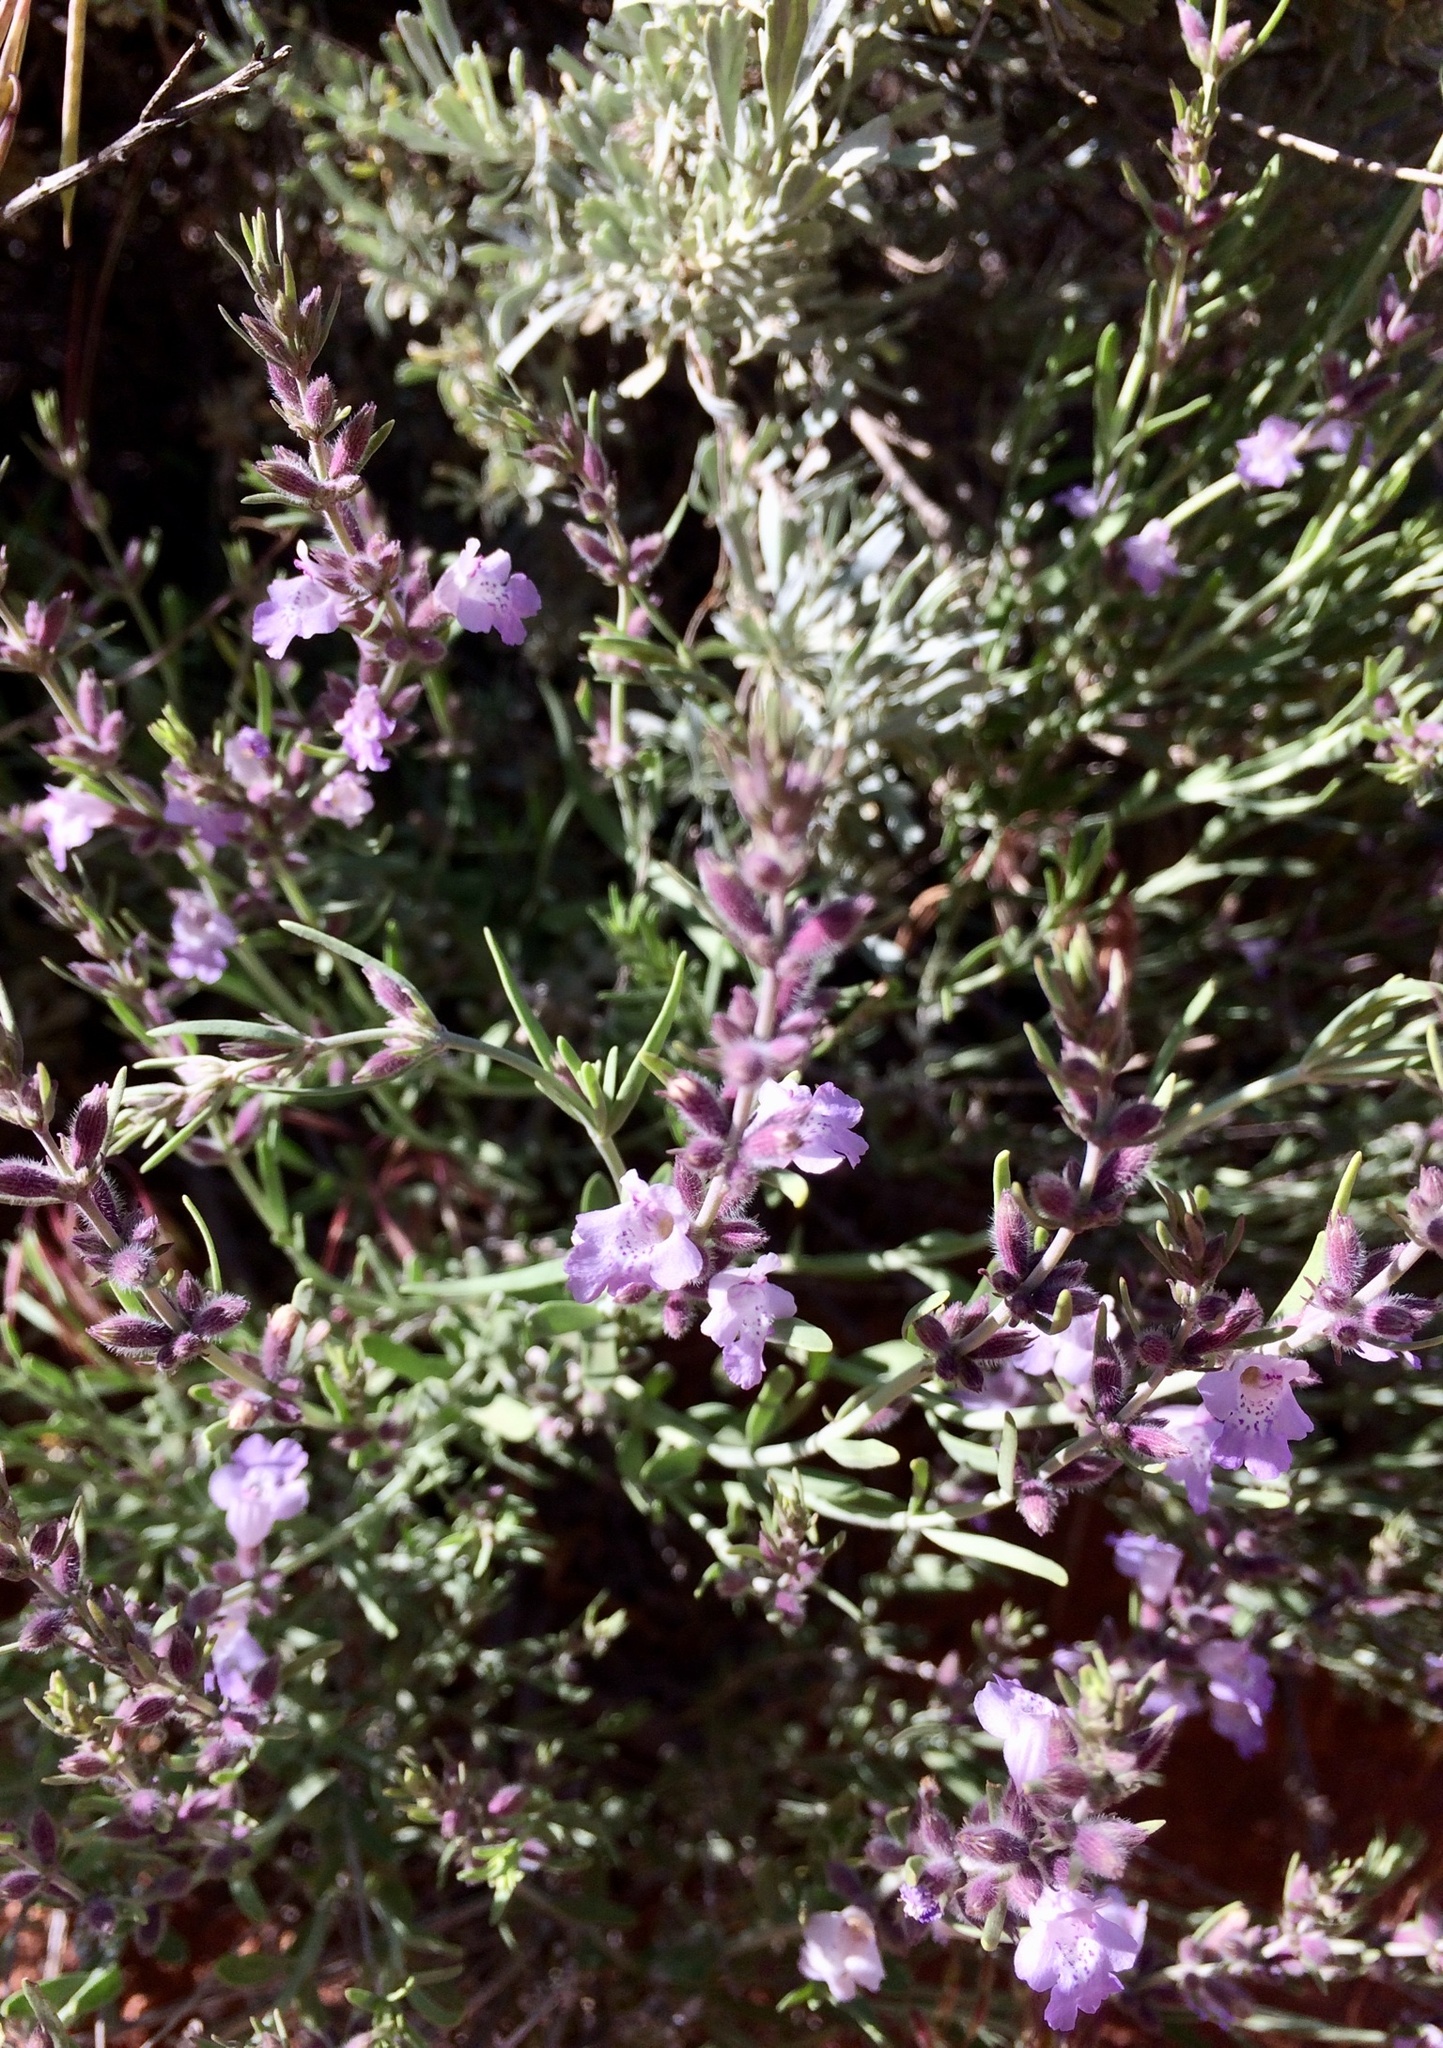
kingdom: Plantae
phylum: Tracheophyta
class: Magnoliopsida
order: Lamiales
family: Lamiaceae
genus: Poliomintha
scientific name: Poliomintha incana
